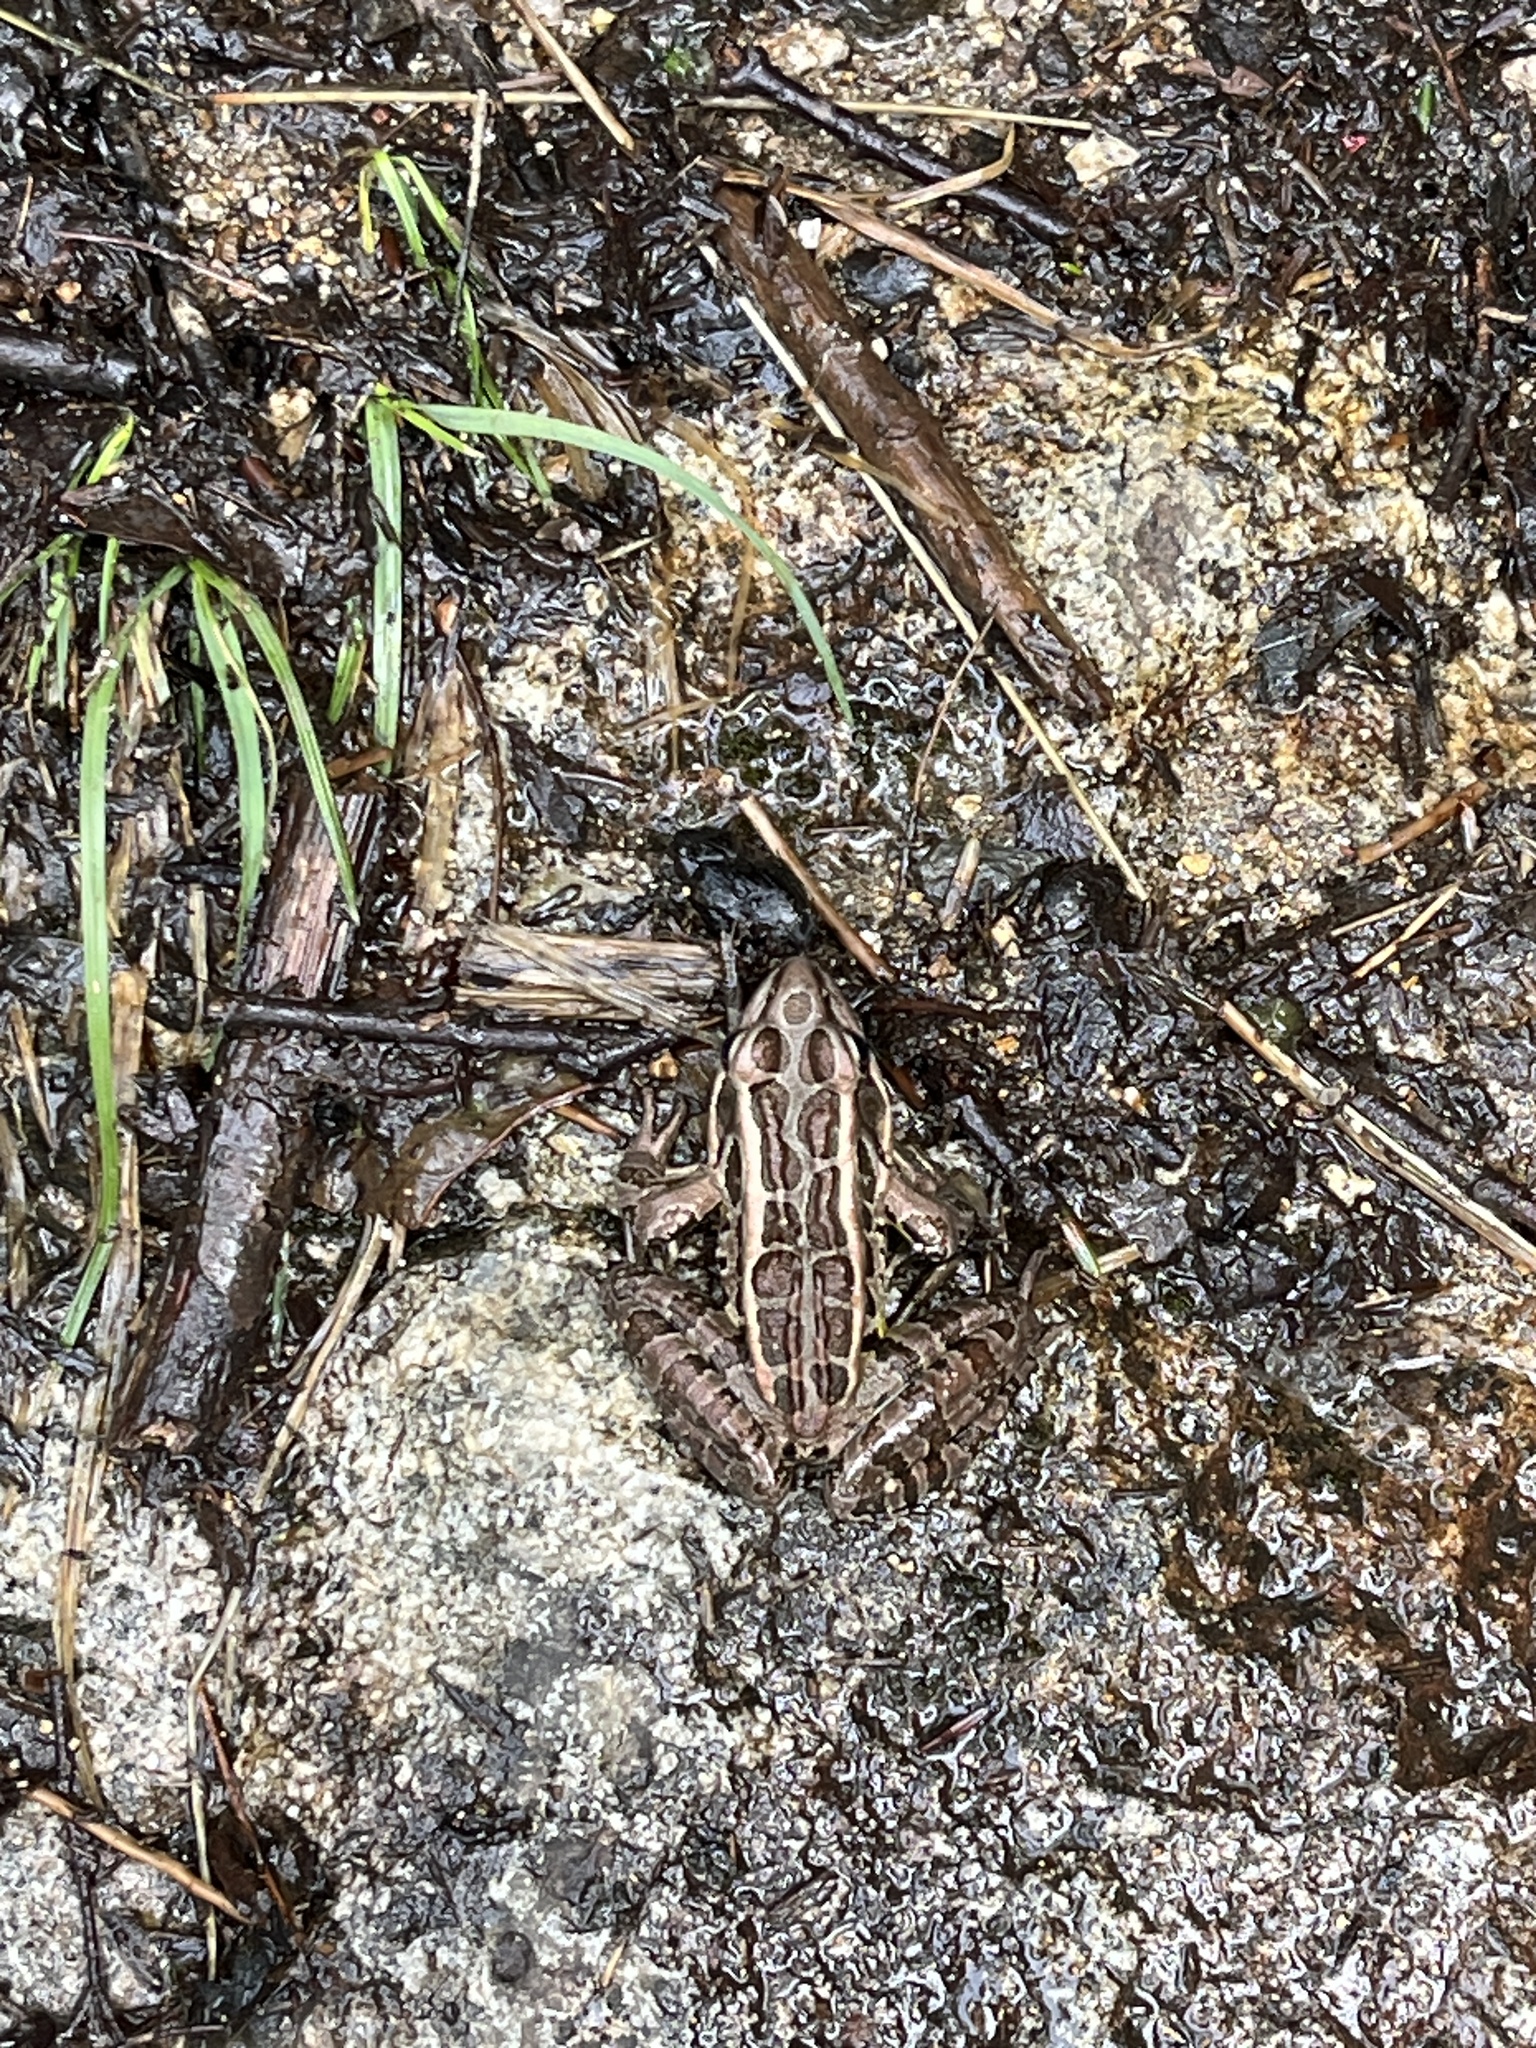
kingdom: Animalia
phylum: Chordata
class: Amphibia
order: Anura
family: Ranidae
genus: Lithobates
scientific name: Lithobates palustris
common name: Pickerel frog
